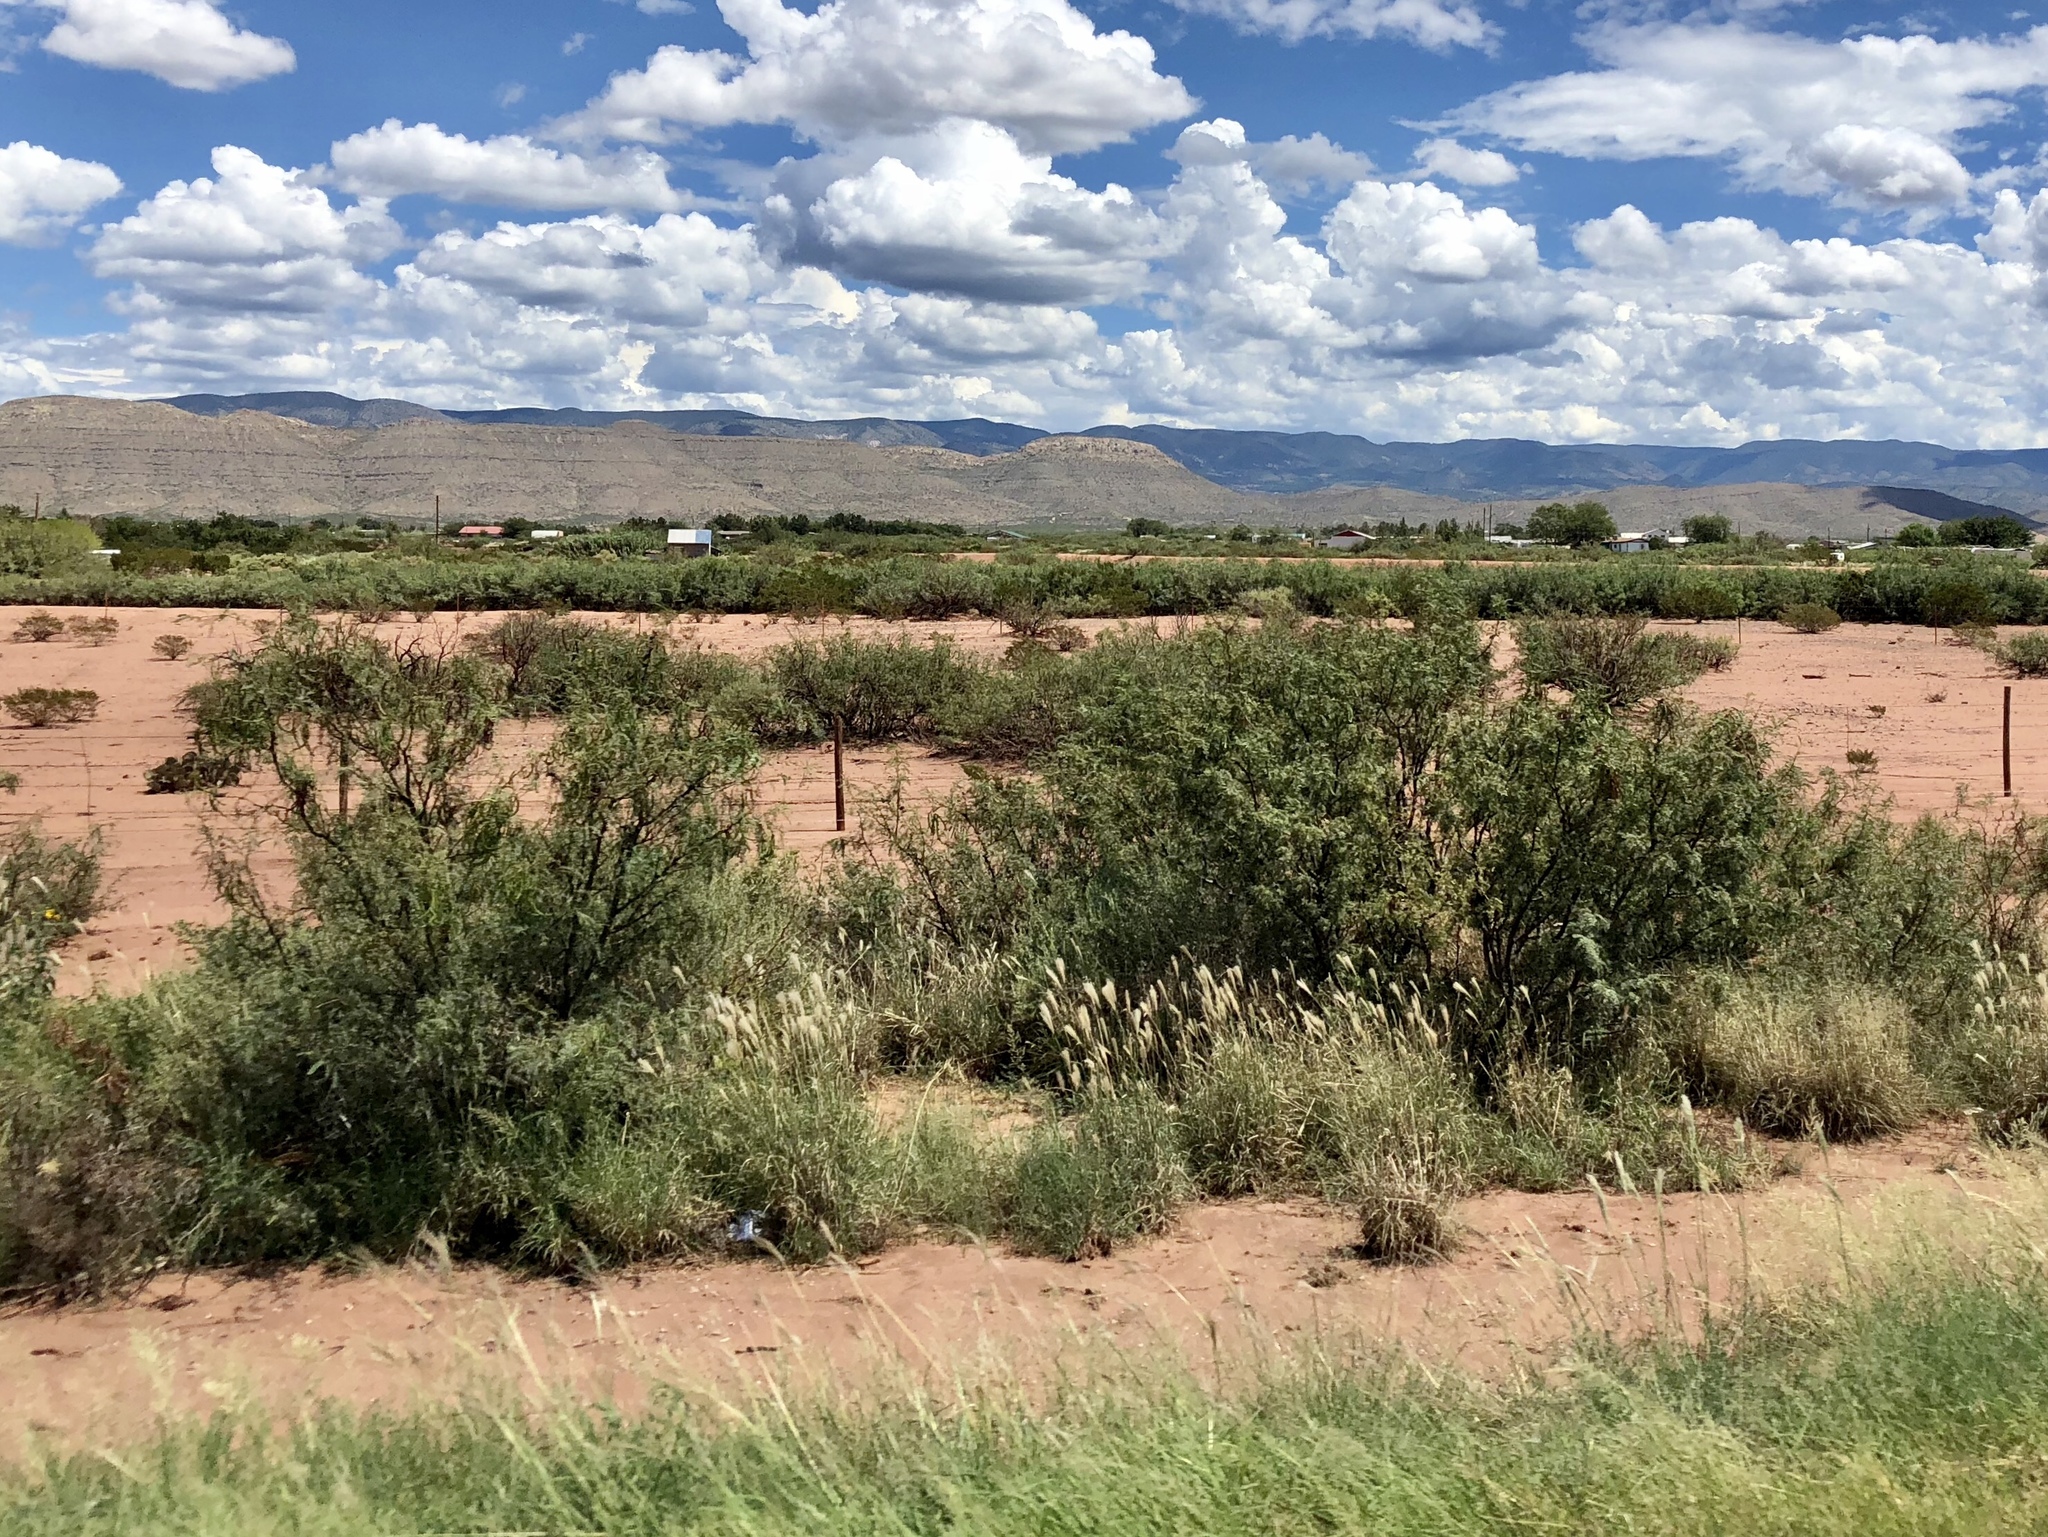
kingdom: Plantae
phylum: Tracheophyta
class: Magnoliopsida
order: Zygophyllales
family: Zygophyllaceae
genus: Larrea
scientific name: Larrea tridentata
